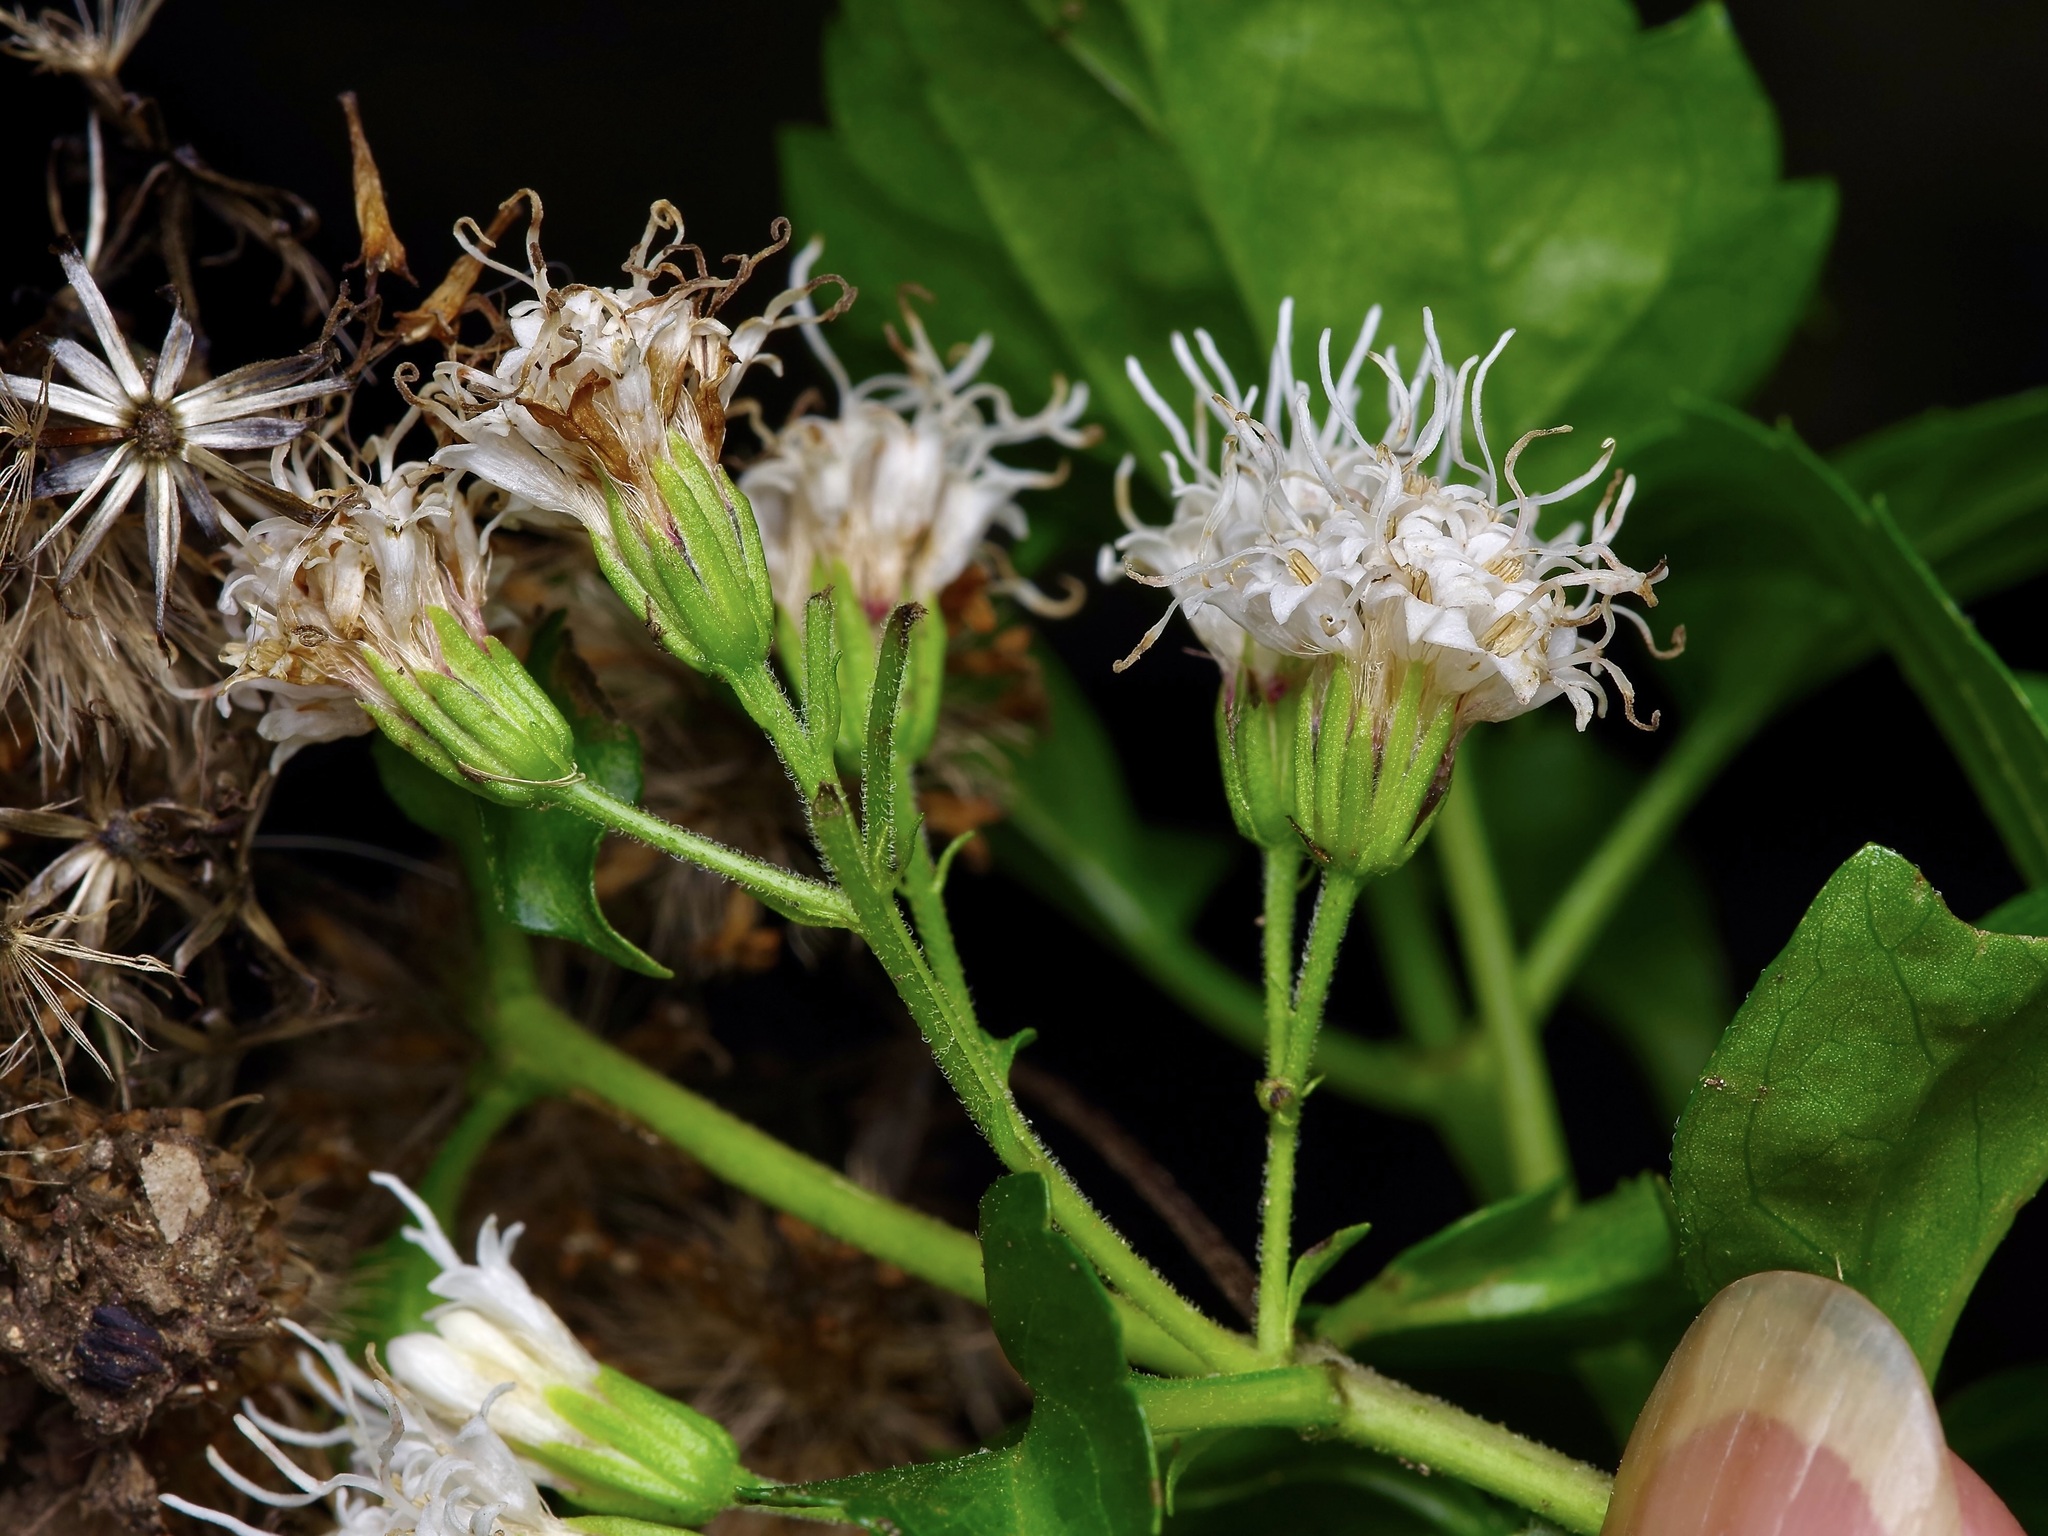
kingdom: Plantae
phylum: Tracheophyta
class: Magnoliopsida
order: Asterales
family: Asteraceae
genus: Ageratina
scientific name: Ageratina havanensis
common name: Havana snakeroot
